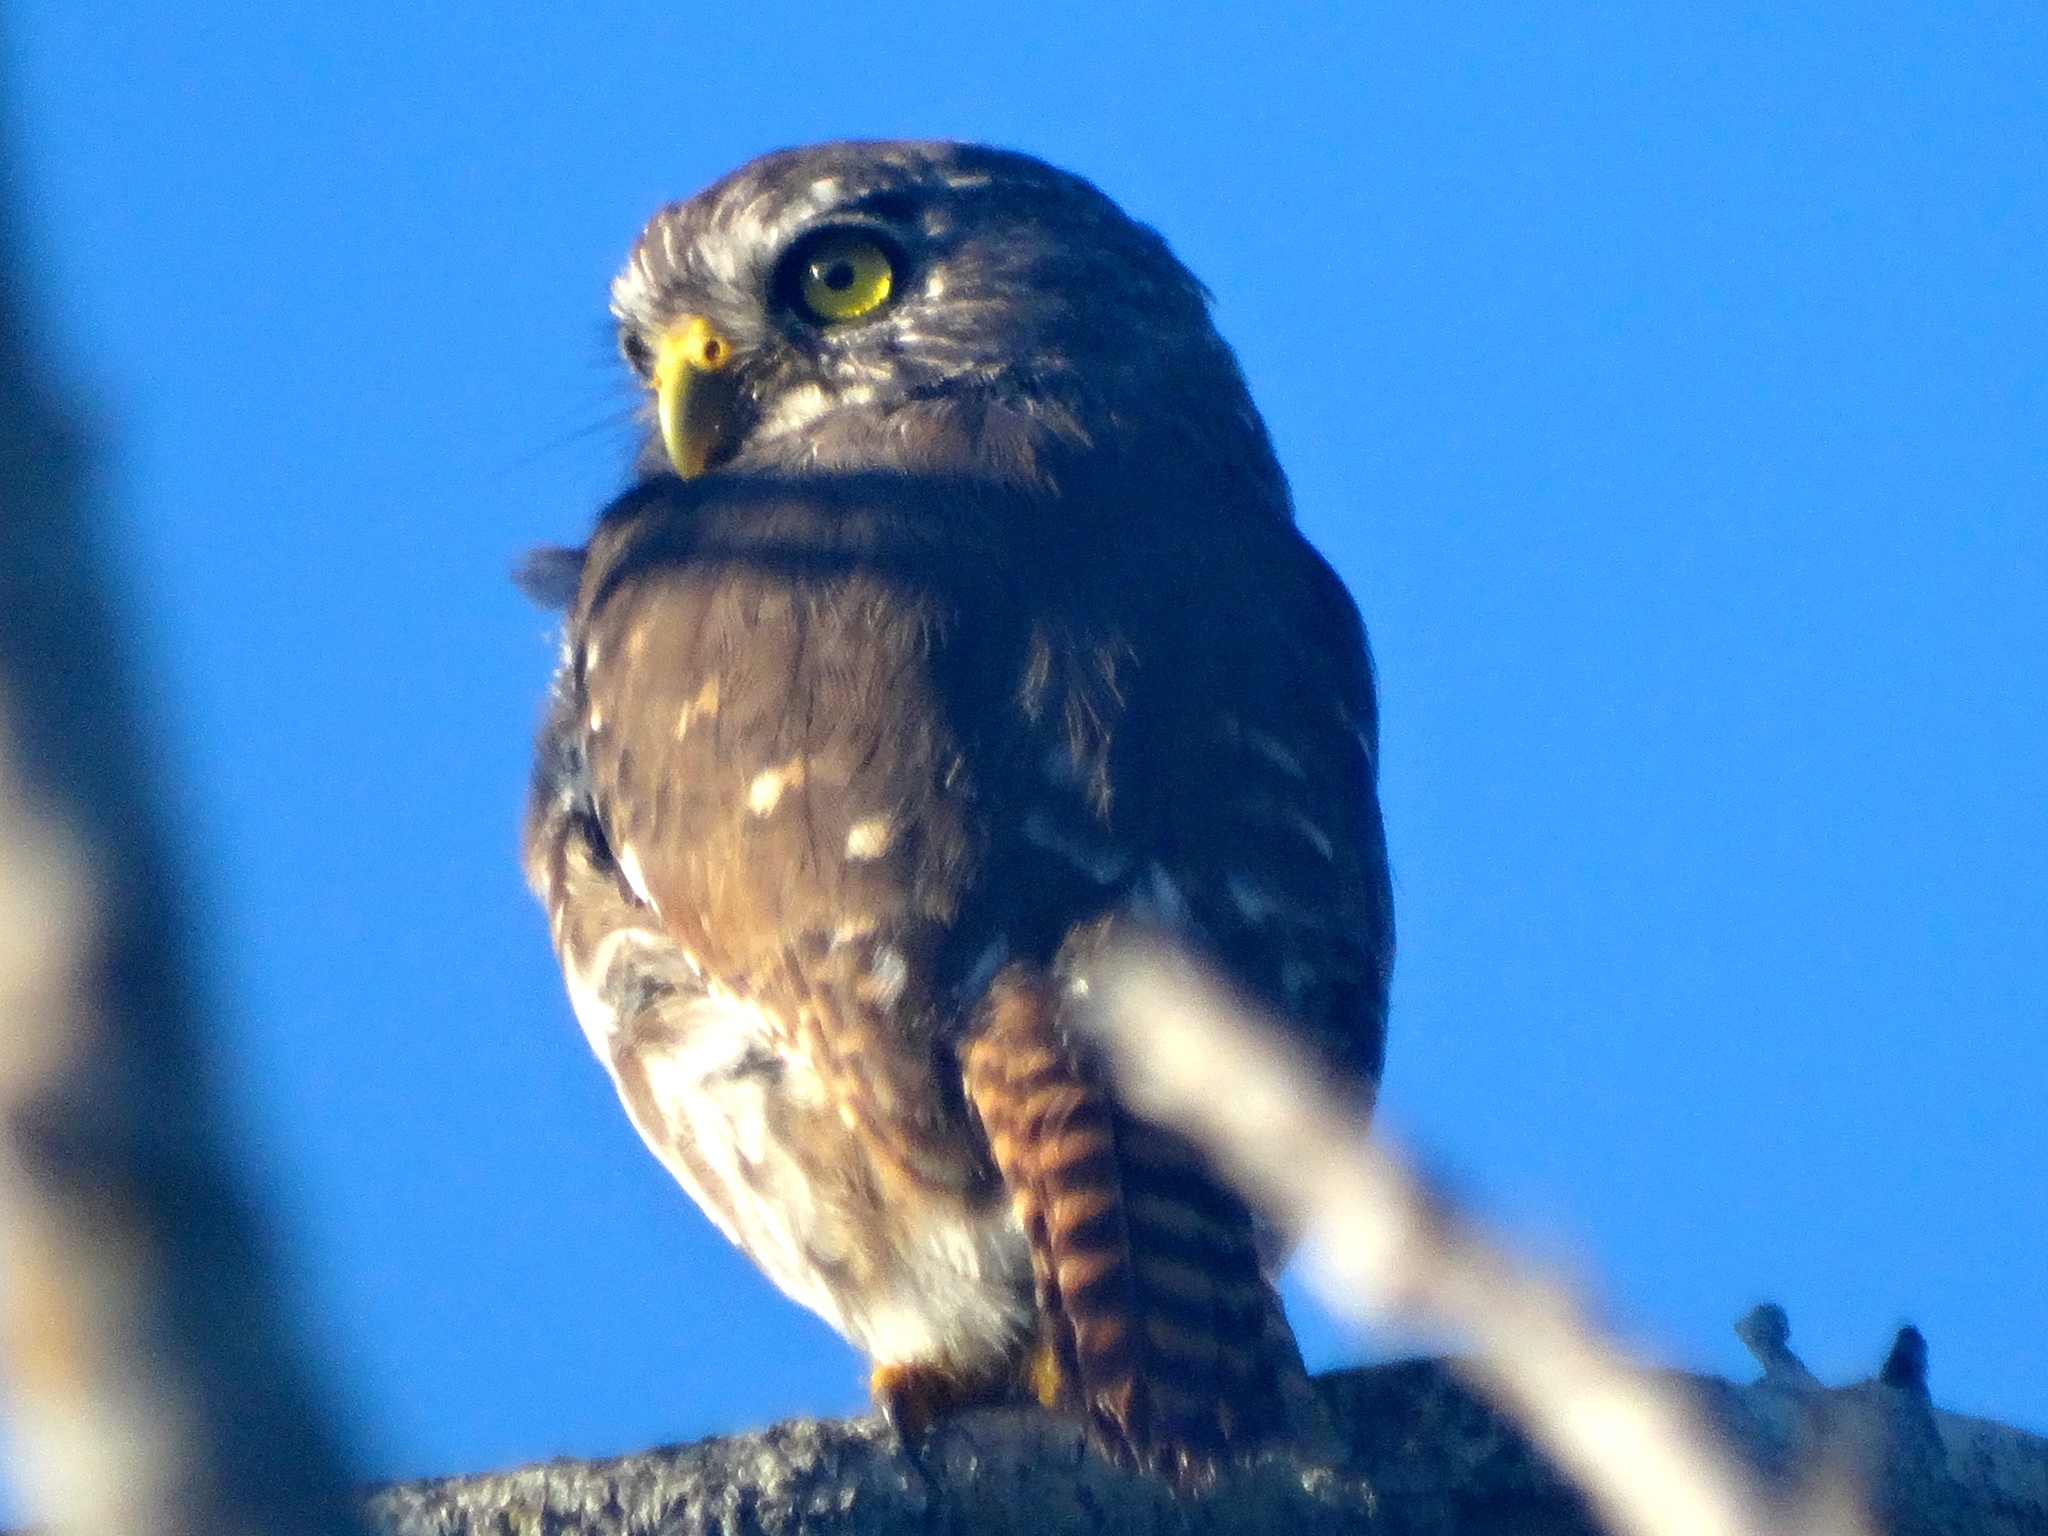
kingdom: Animalia
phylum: Chordata
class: Aves
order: Strigiformes
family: Strigidae
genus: Glaucidium
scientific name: Glaucidium brasilianum
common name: Ferruginous pygmy-owl
